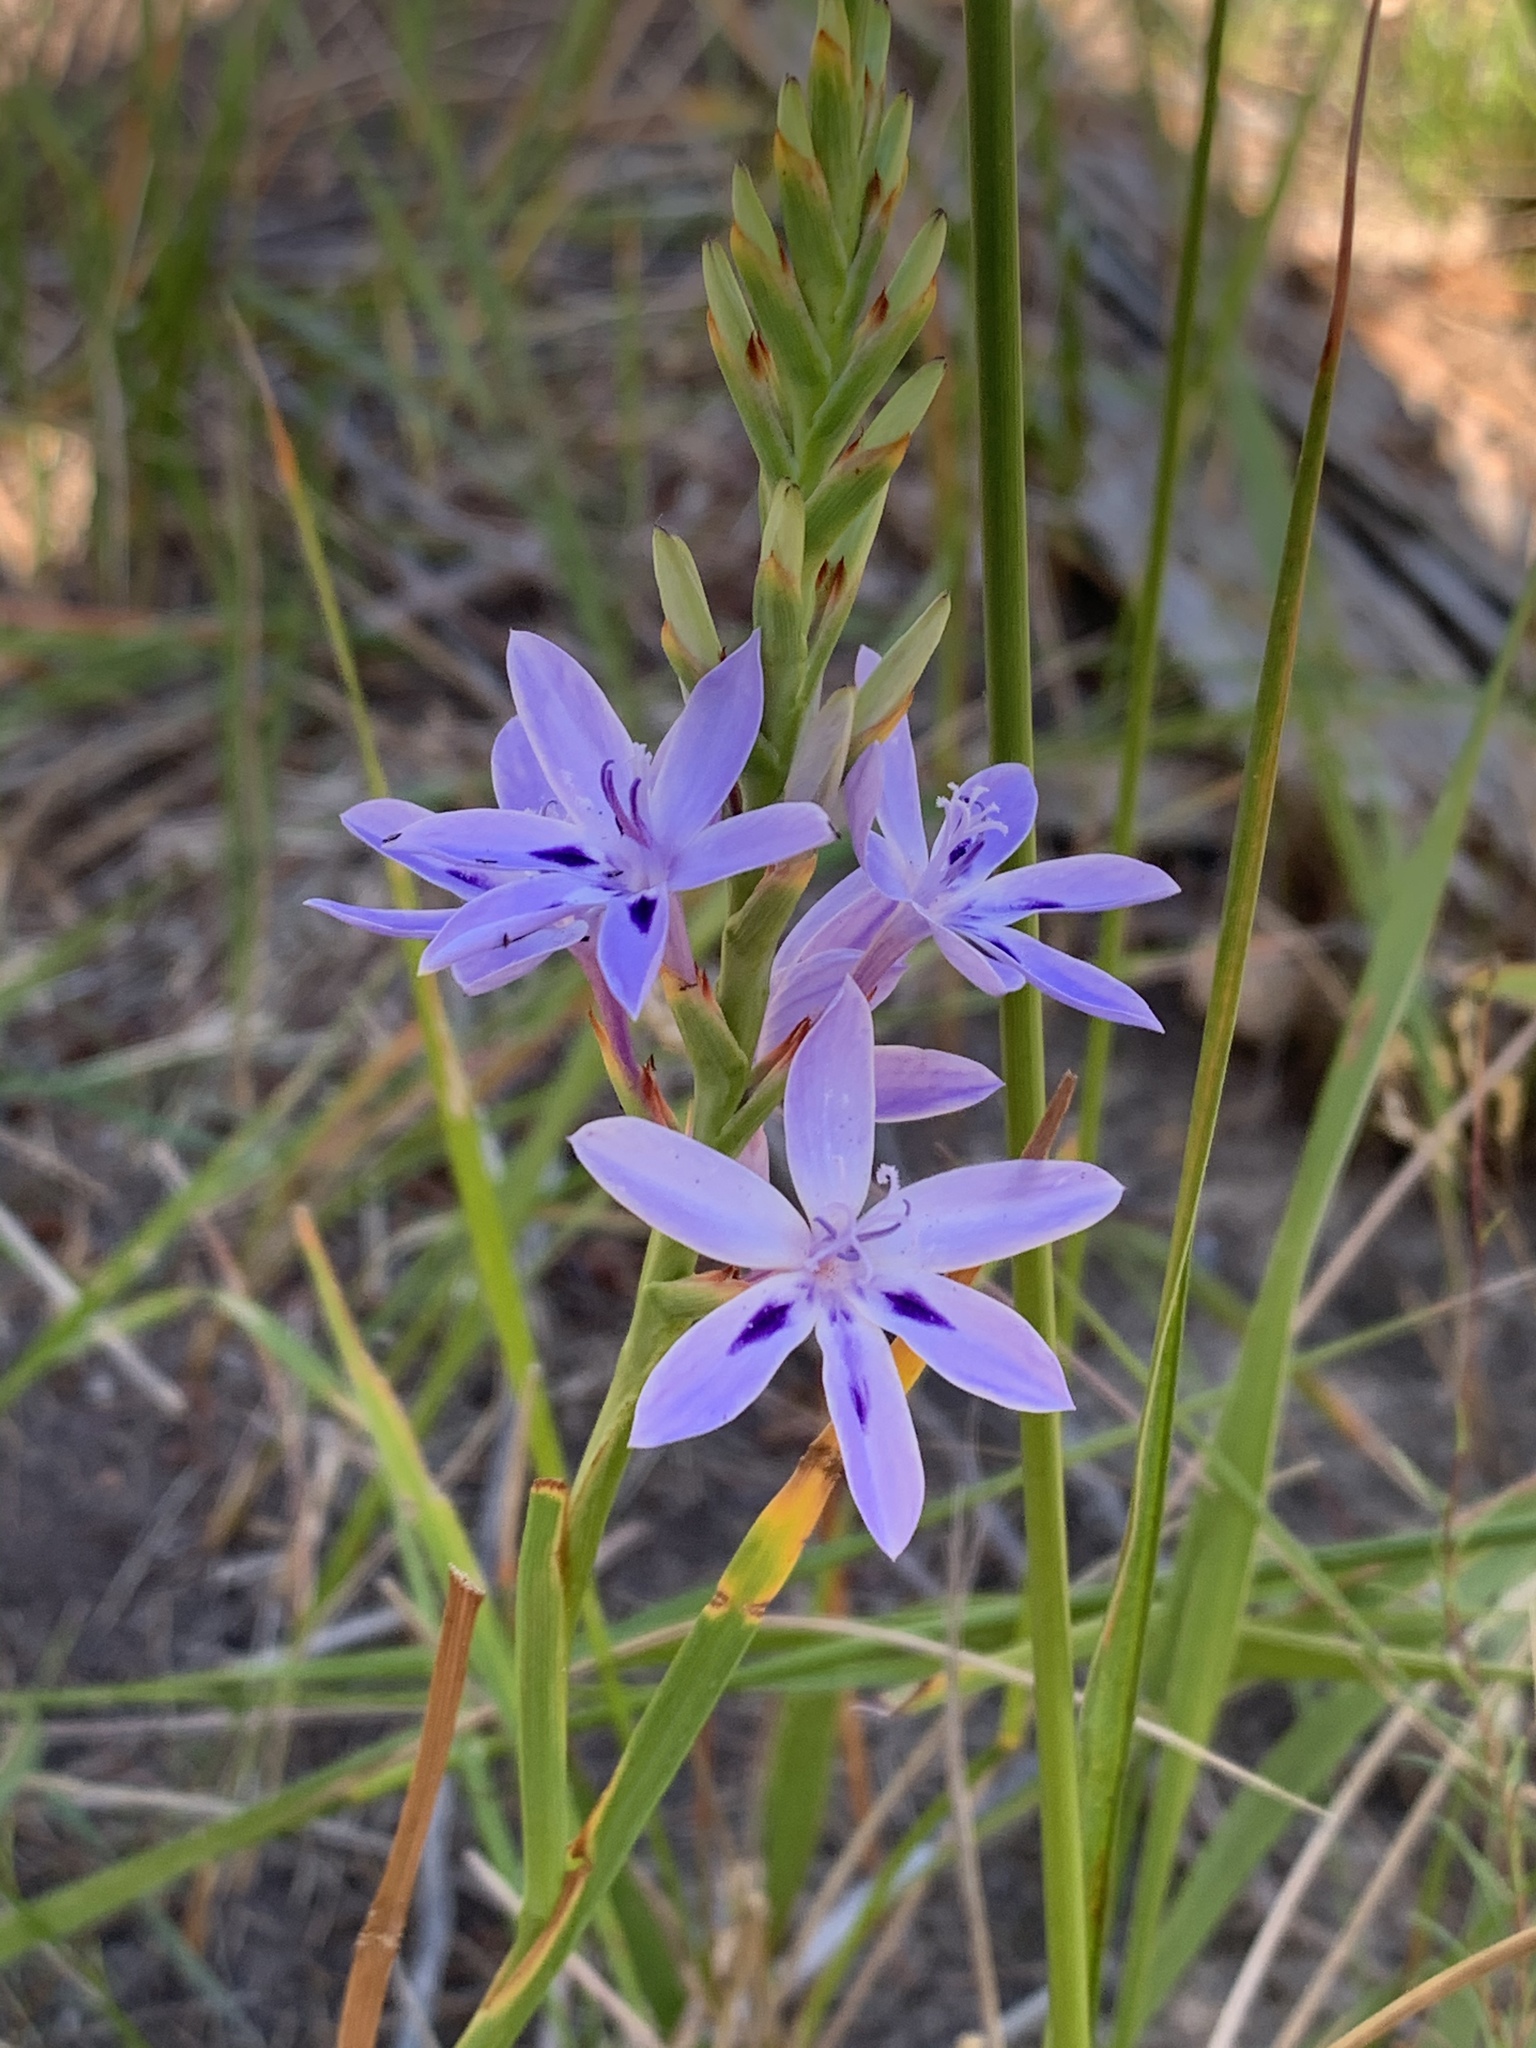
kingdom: Plantae
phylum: Tracheophyta
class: Liliopsida
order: Asparagales
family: Iridaceae
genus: Thereianthus
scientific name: Thereianthus spicatus
